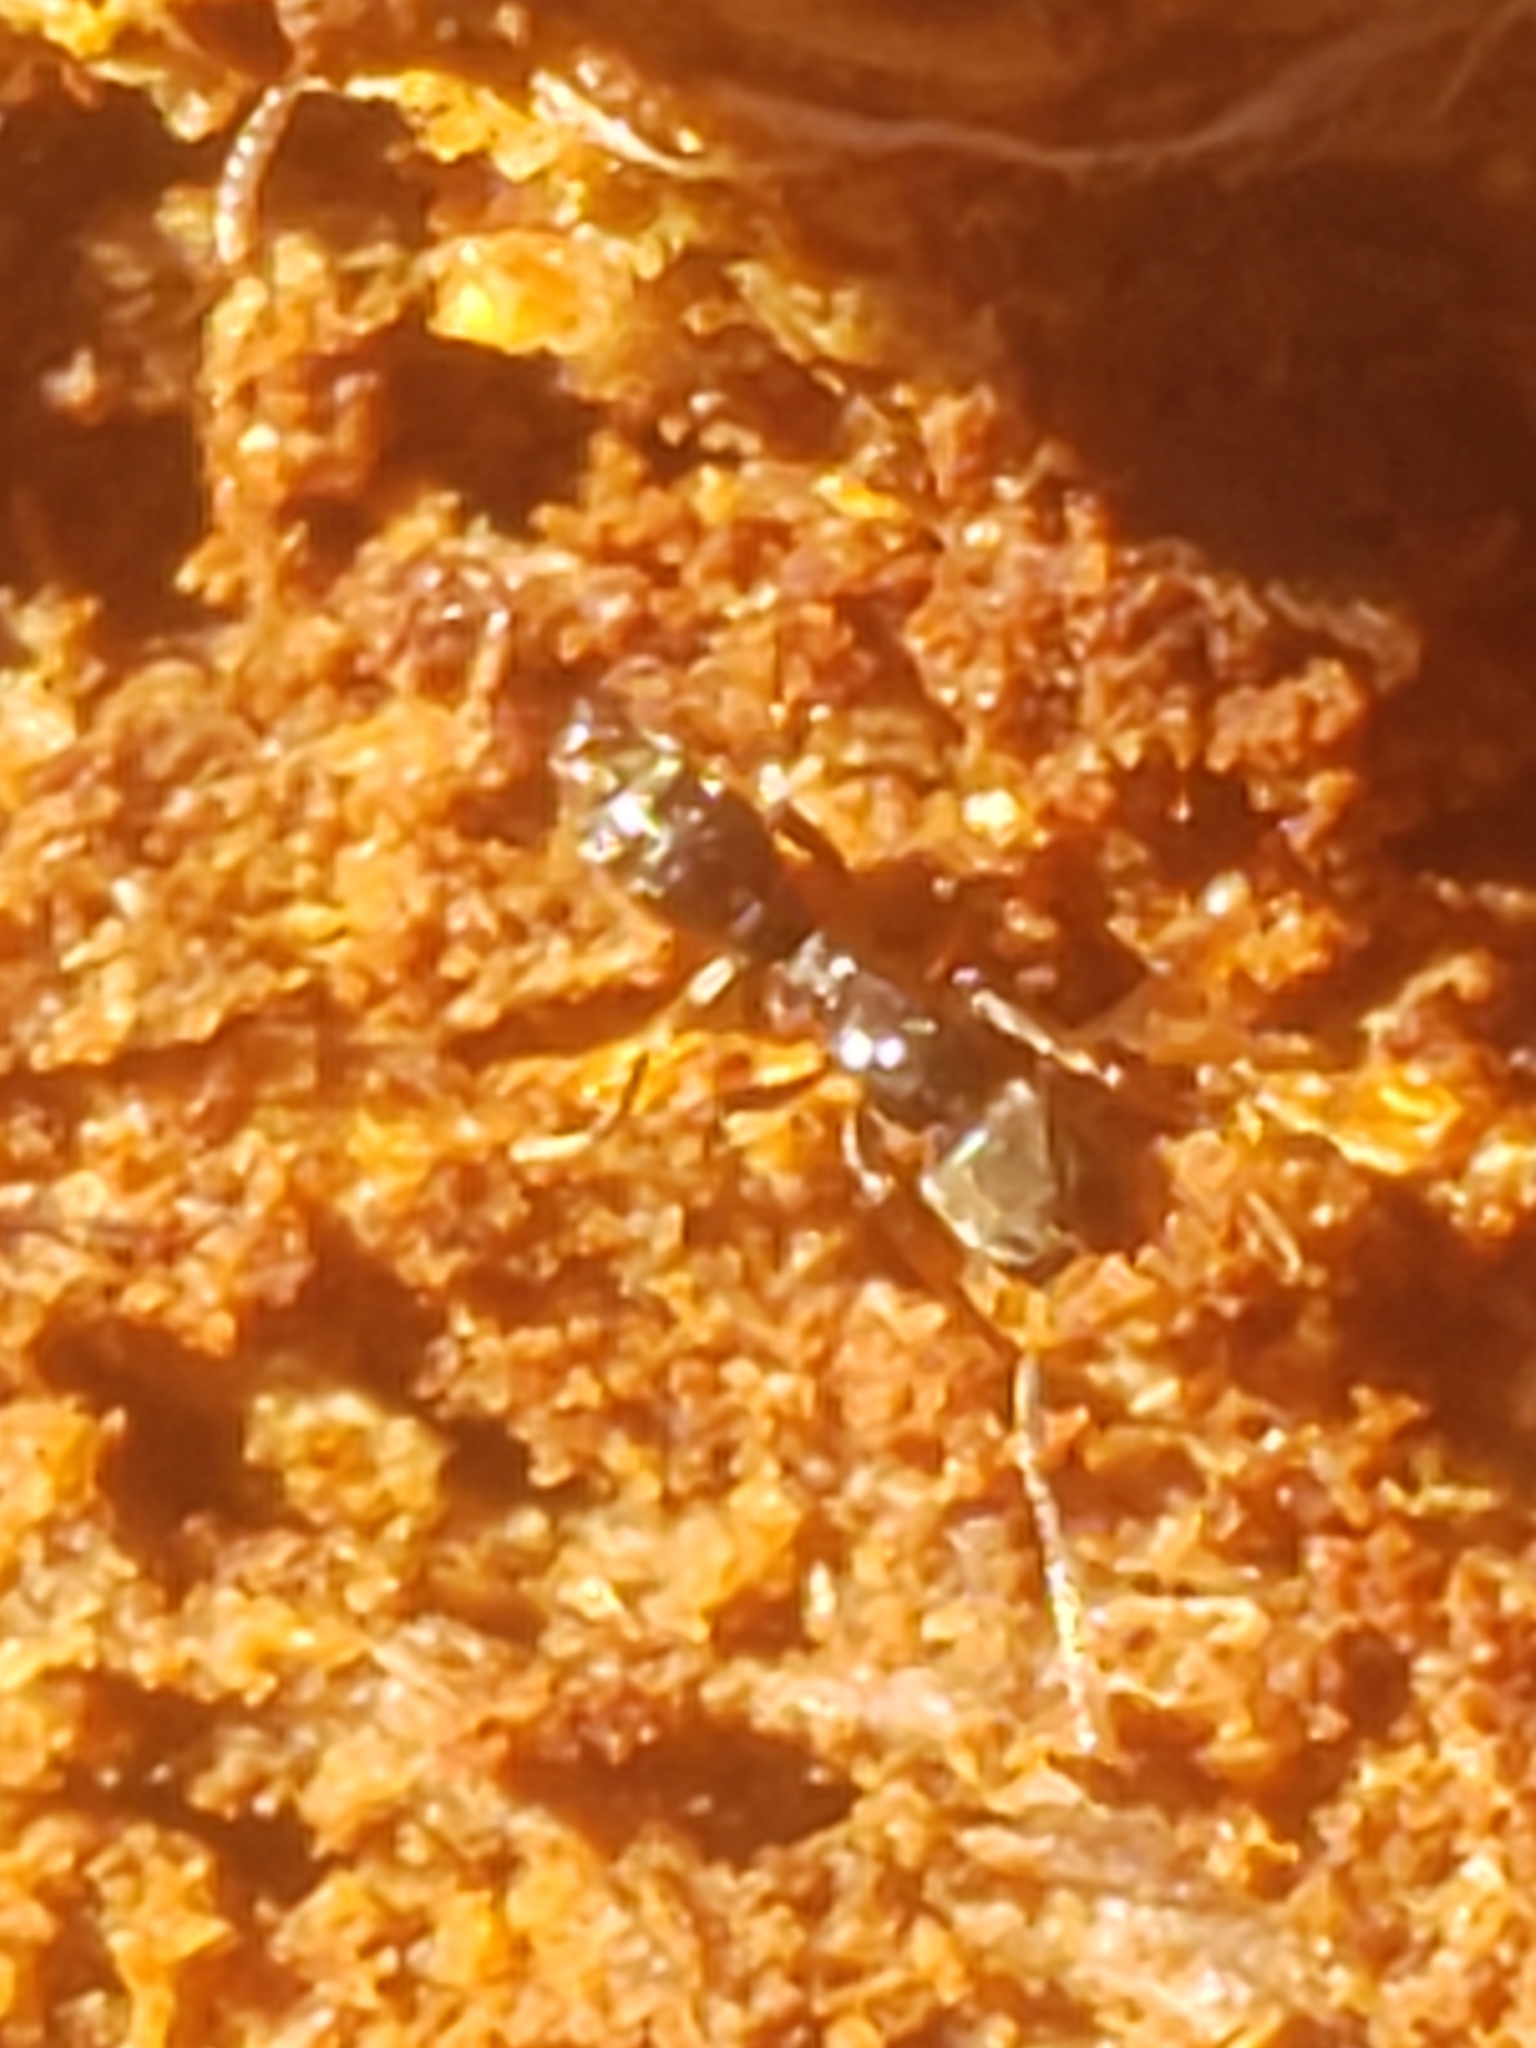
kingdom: Animalia
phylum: Arthropoda
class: Insecta
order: Hymenoptera
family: Formicidae
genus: Pachycondyla
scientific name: Pachycondyla chinensis
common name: Asian needle ant
